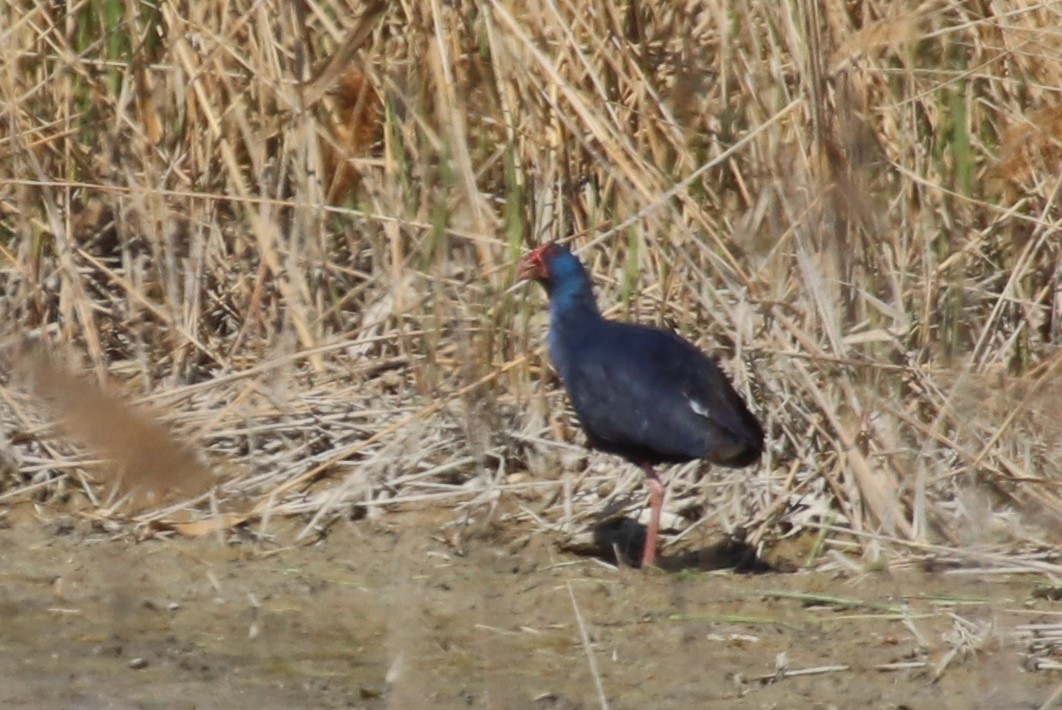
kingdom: Animalia
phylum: Chordata
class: Aves
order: Gruiformes
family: Rallidae
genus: Porphyrio
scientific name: Porphyrio porphyrio
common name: Purple swamphen
